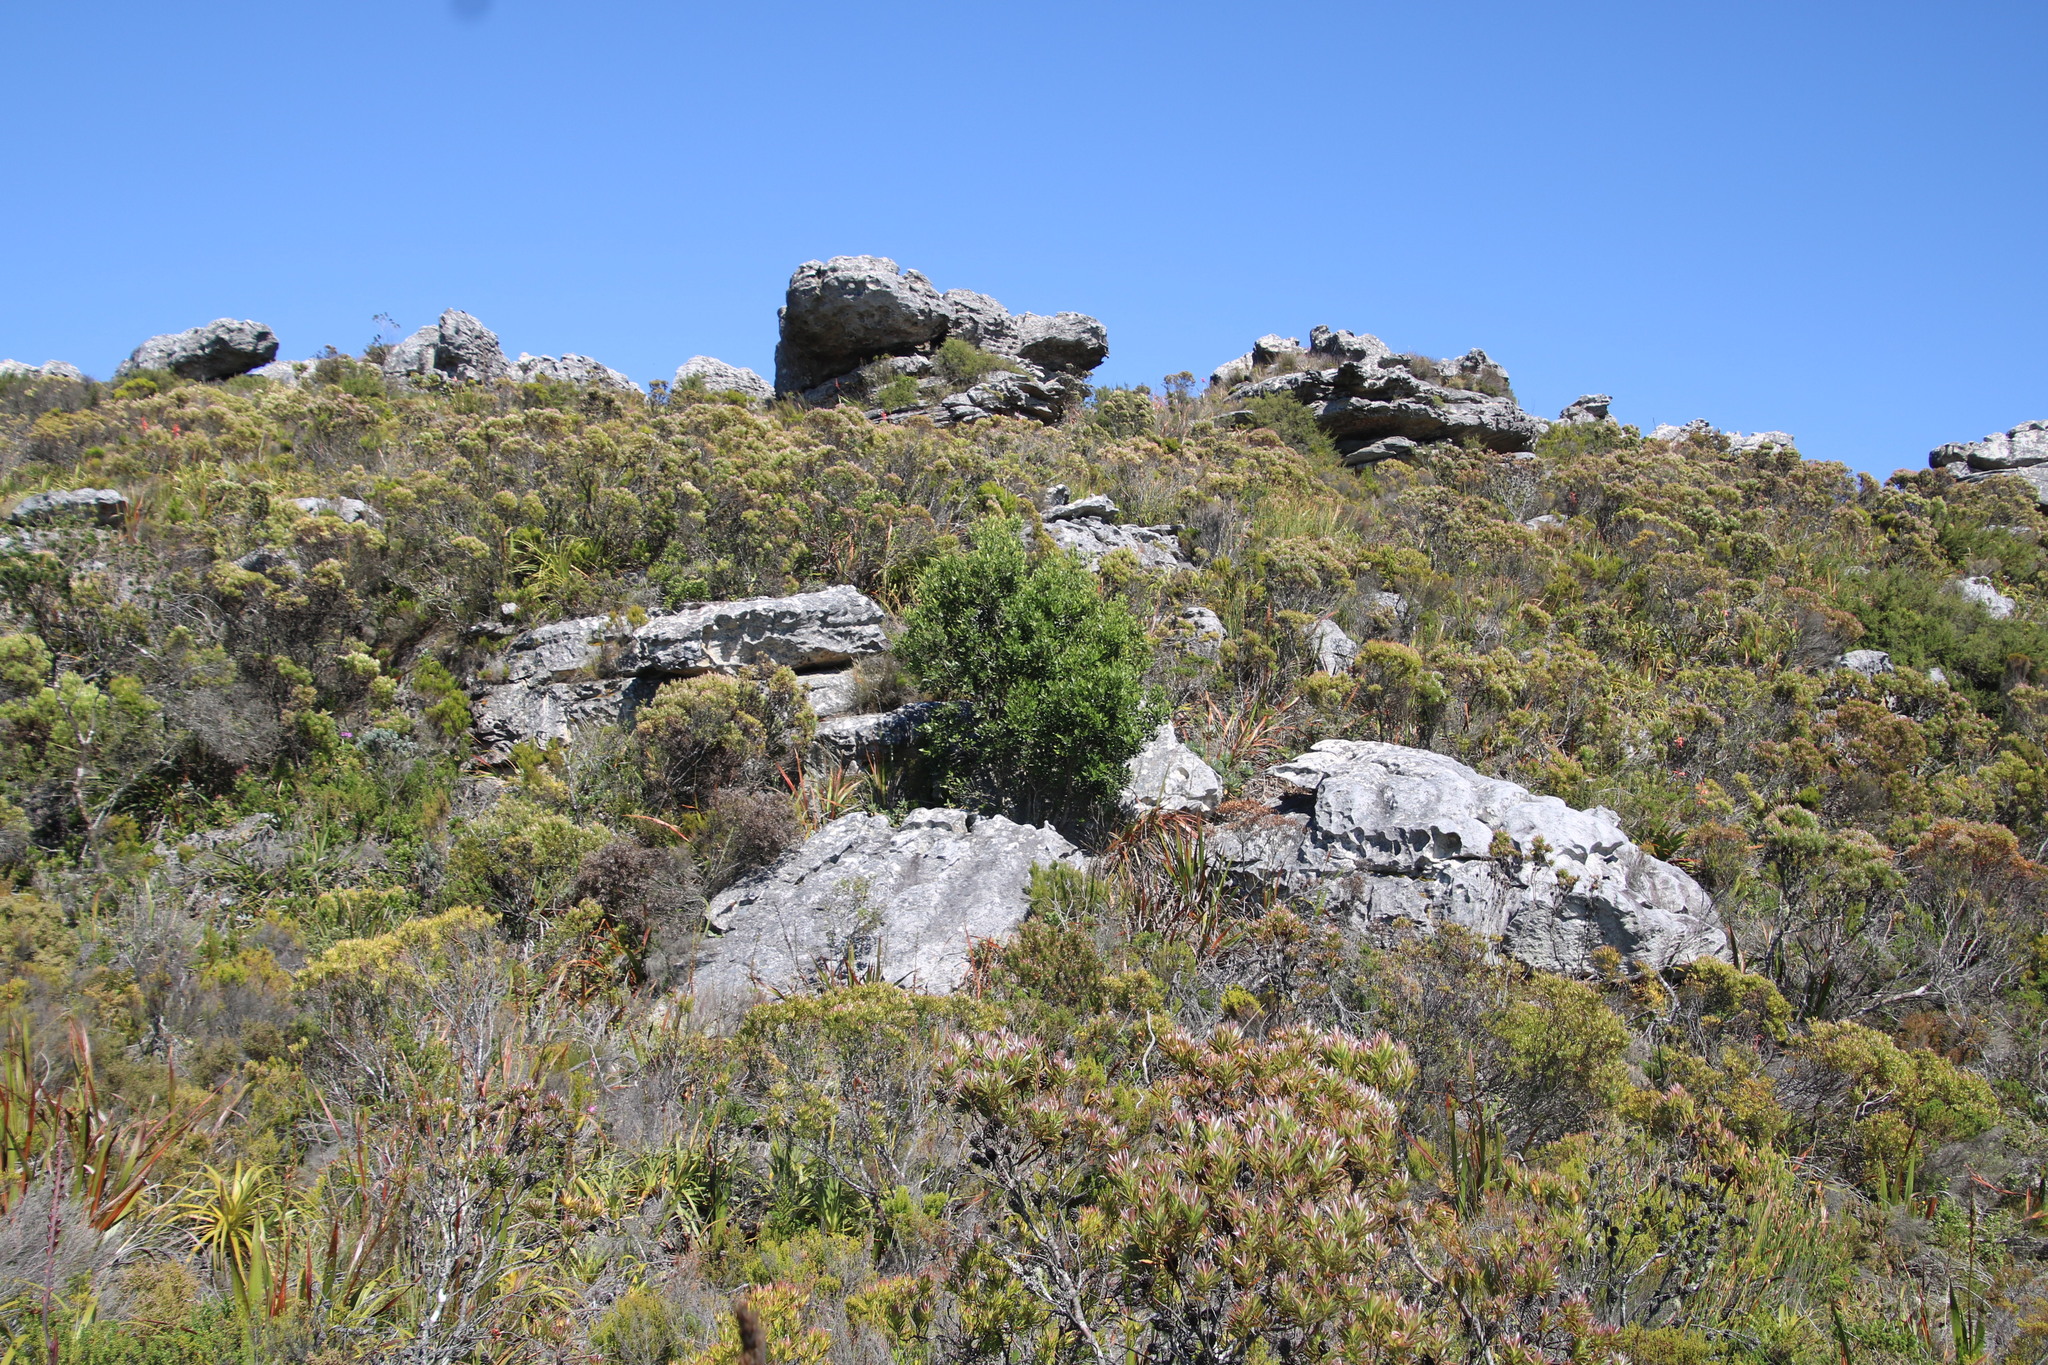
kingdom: Plantae
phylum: Tracheophyta
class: Magnoliopsida
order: Celastrales
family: Celastraceae
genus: Gymnosporia
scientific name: Gymnosporia laurina
